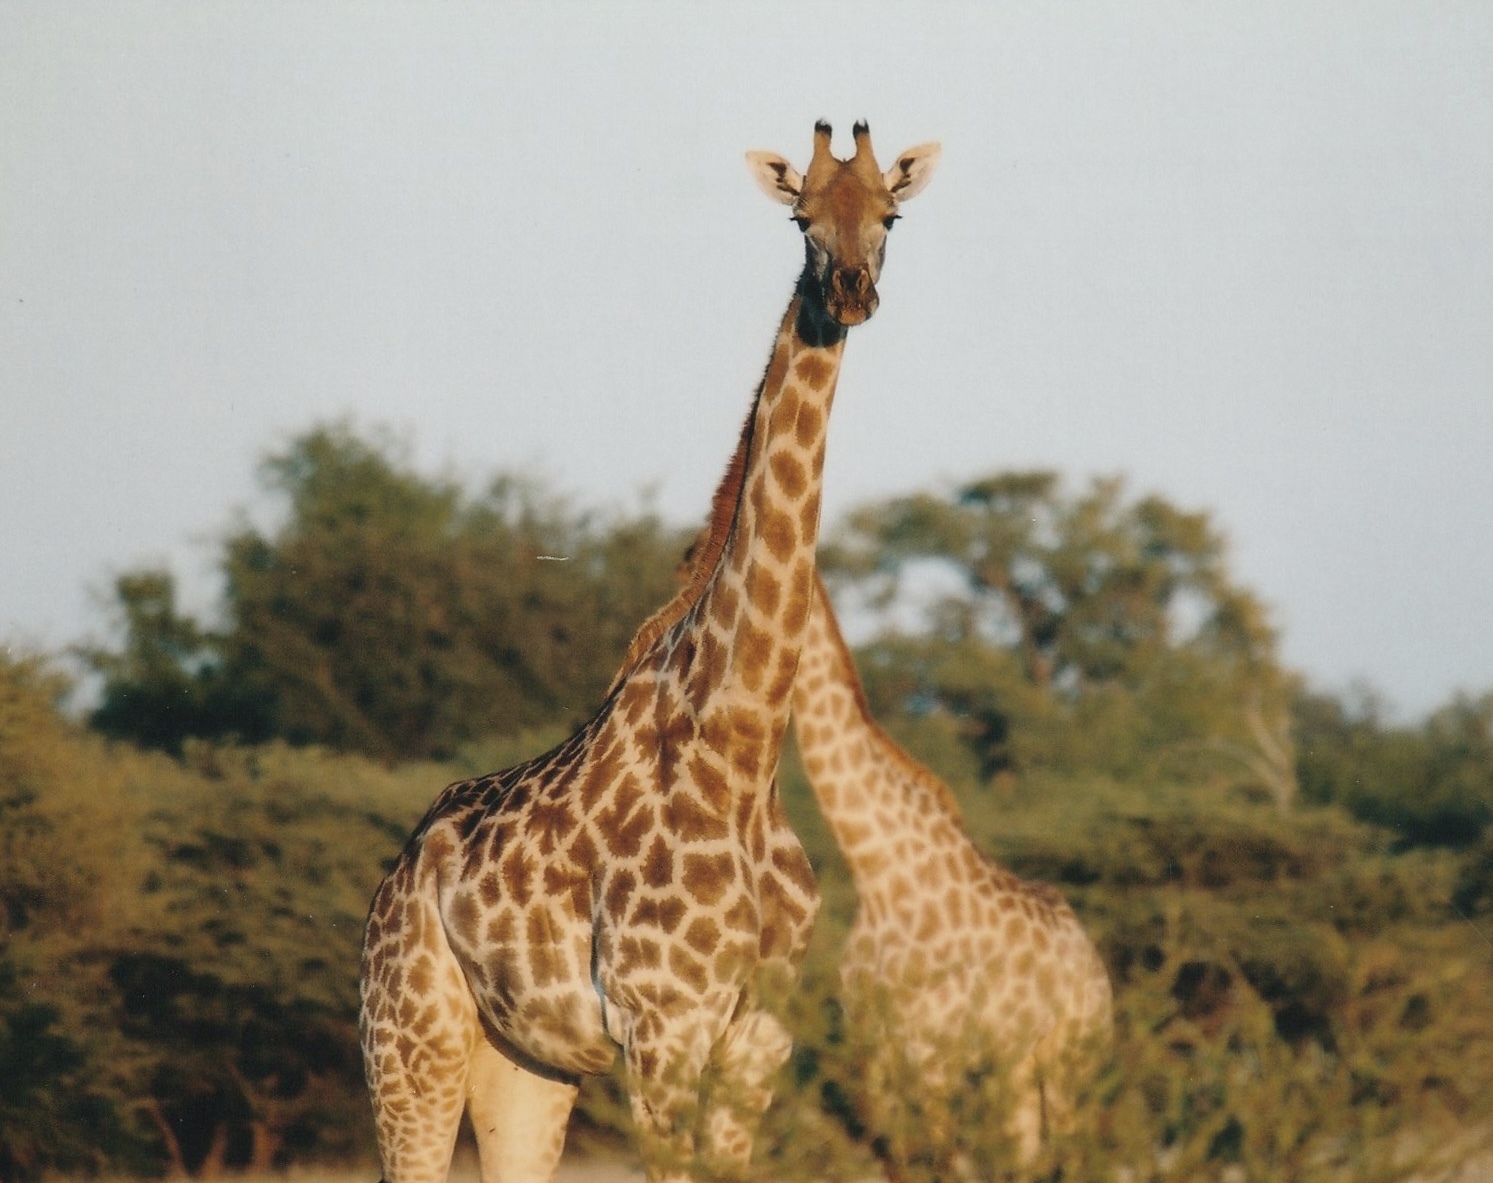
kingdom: Animalia
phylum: Chordata
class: Mammalia
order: Artiodactyla
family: Giraffidae
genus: Giraffa
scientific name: Giraffa giraffa
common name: Southern giraffe
